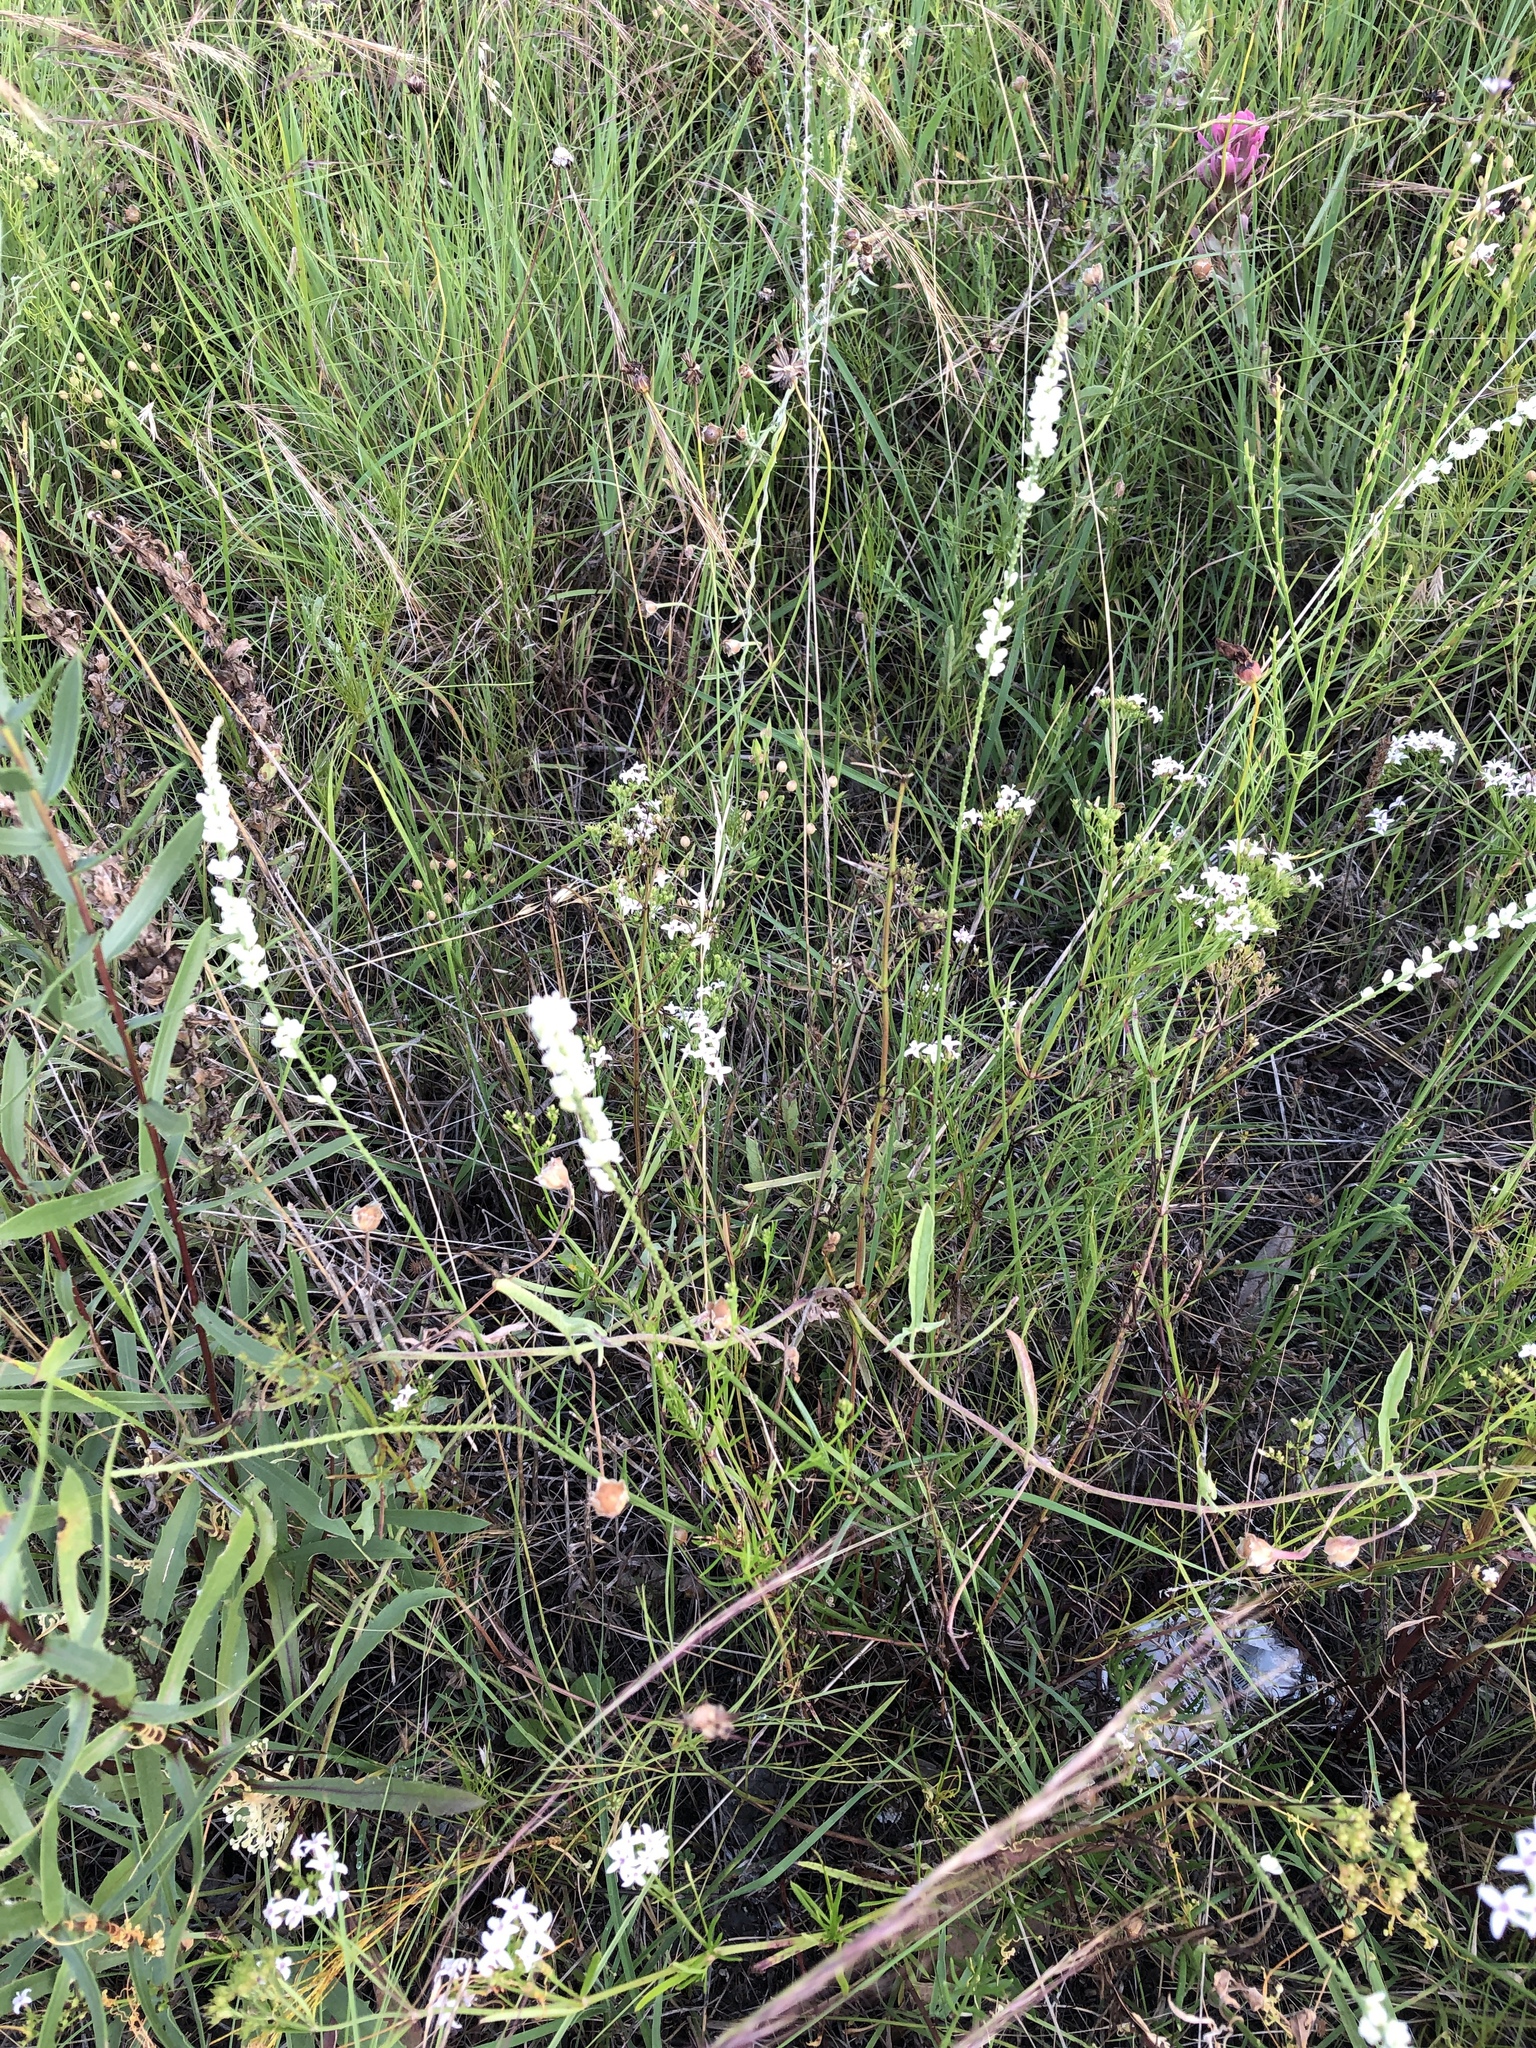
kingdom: Plantae
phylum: Tracheophyta
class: Magnoliopsida
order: Fabales
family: Polygalaceae
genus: Polygala
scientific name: Polygala alba
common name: White milkwort
